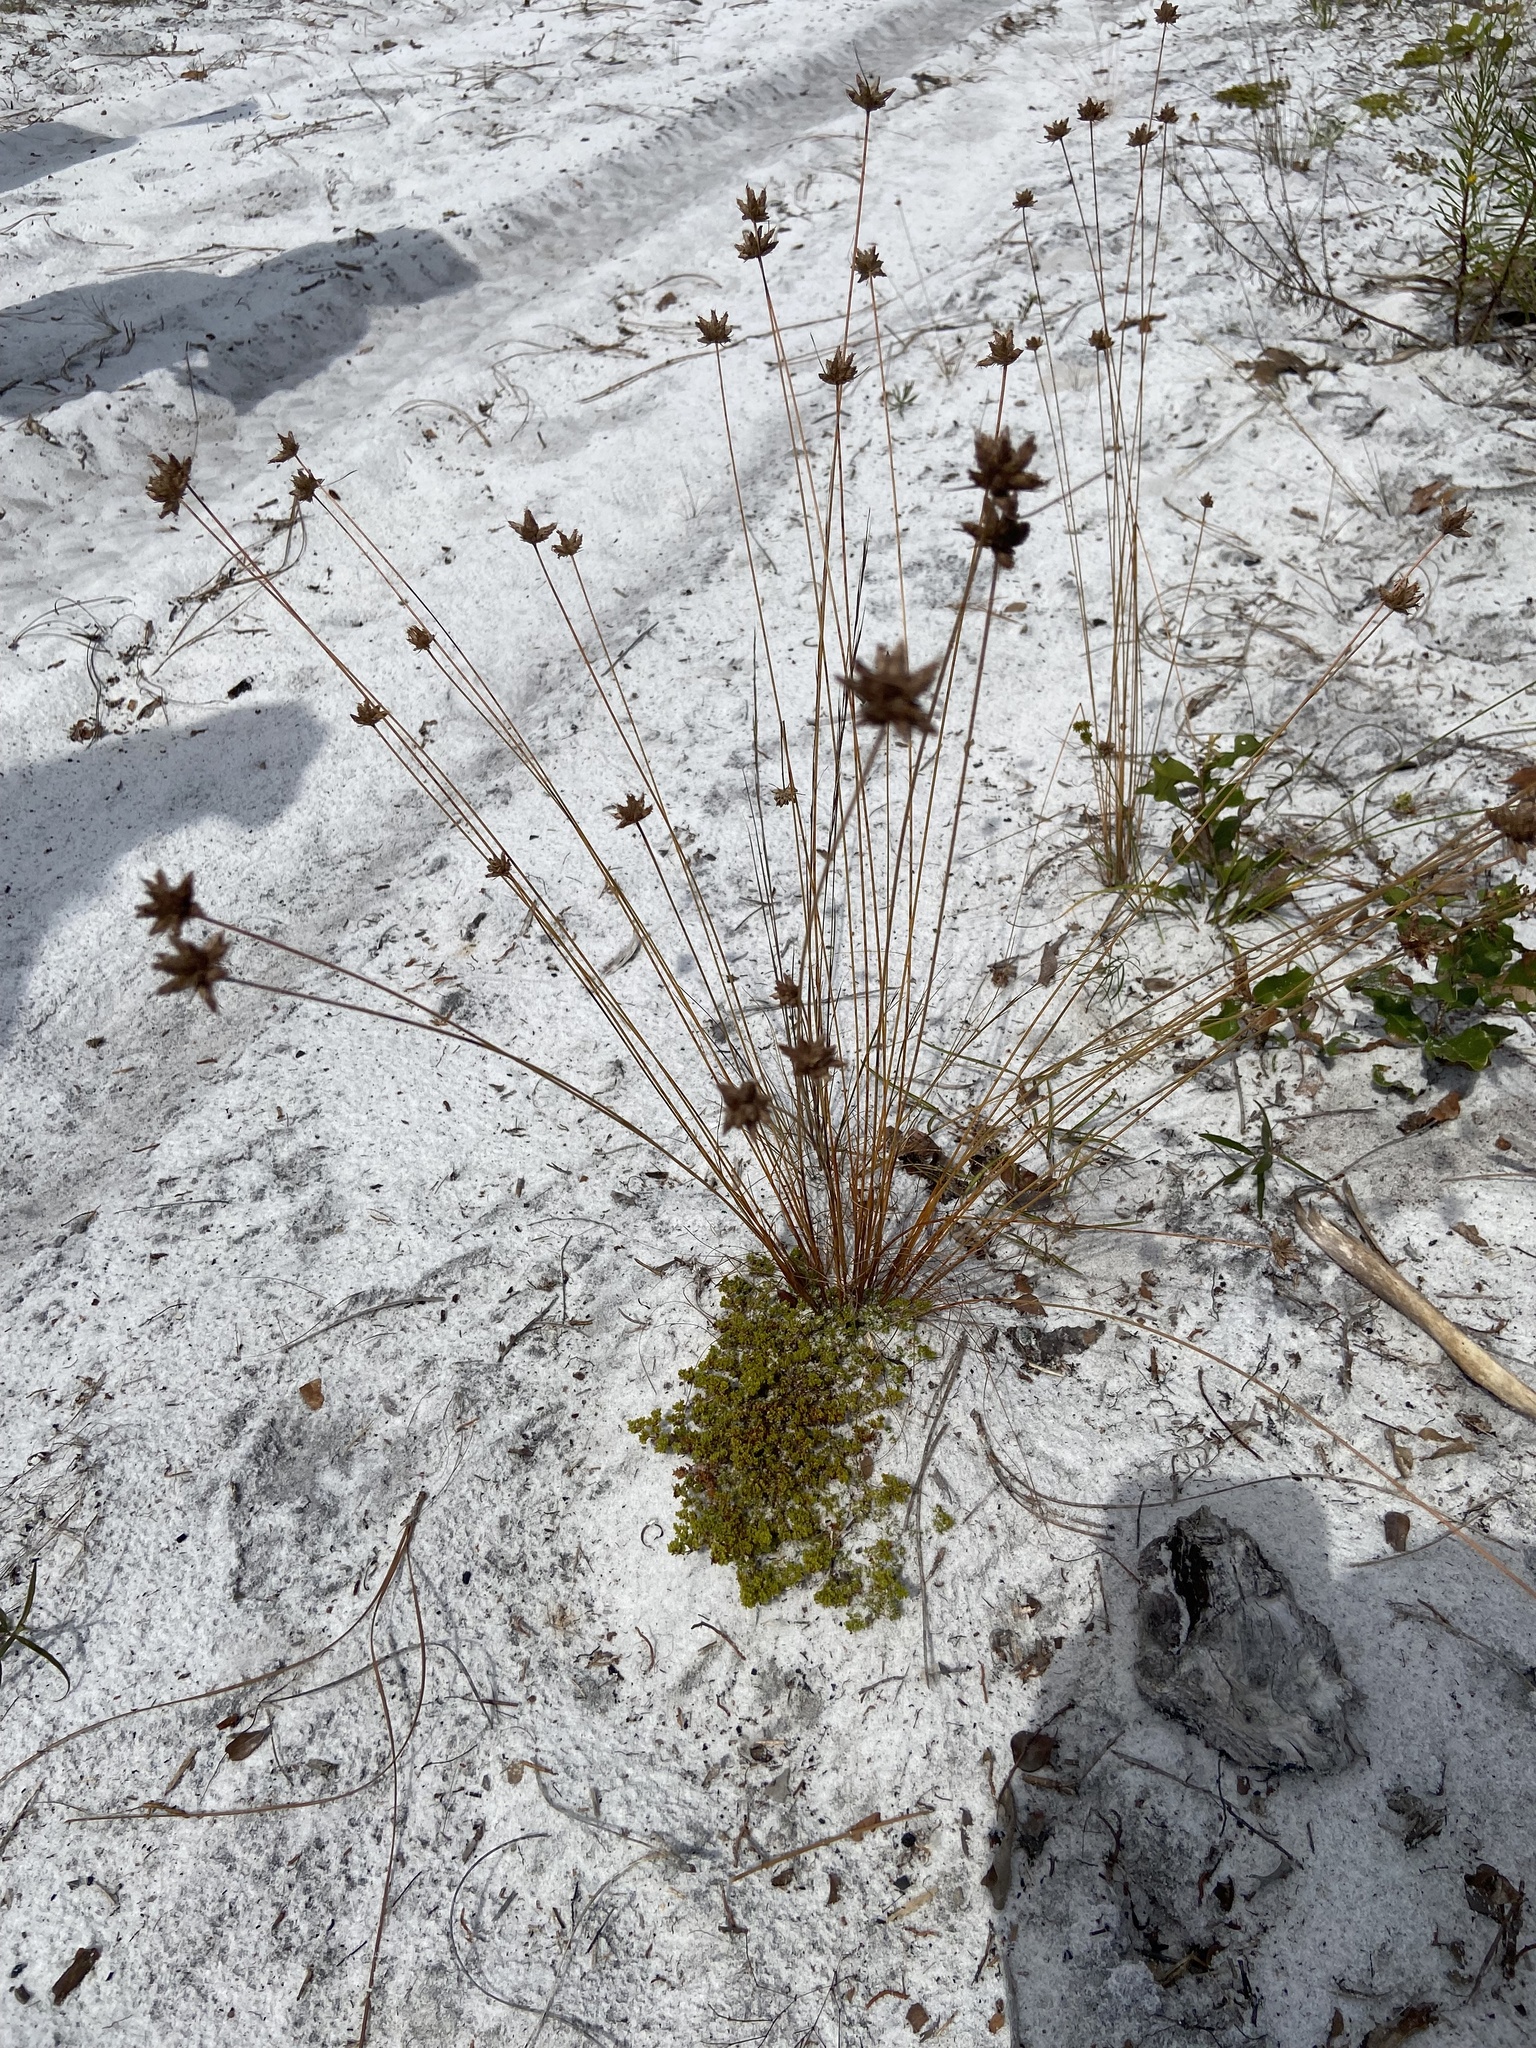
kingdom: Plantae
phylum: Tracheophyta
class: Magnoliopsida
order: Caryophyllales
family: Caryophyllaceae
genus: Paronychia
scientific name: Paronychia herniarioides
